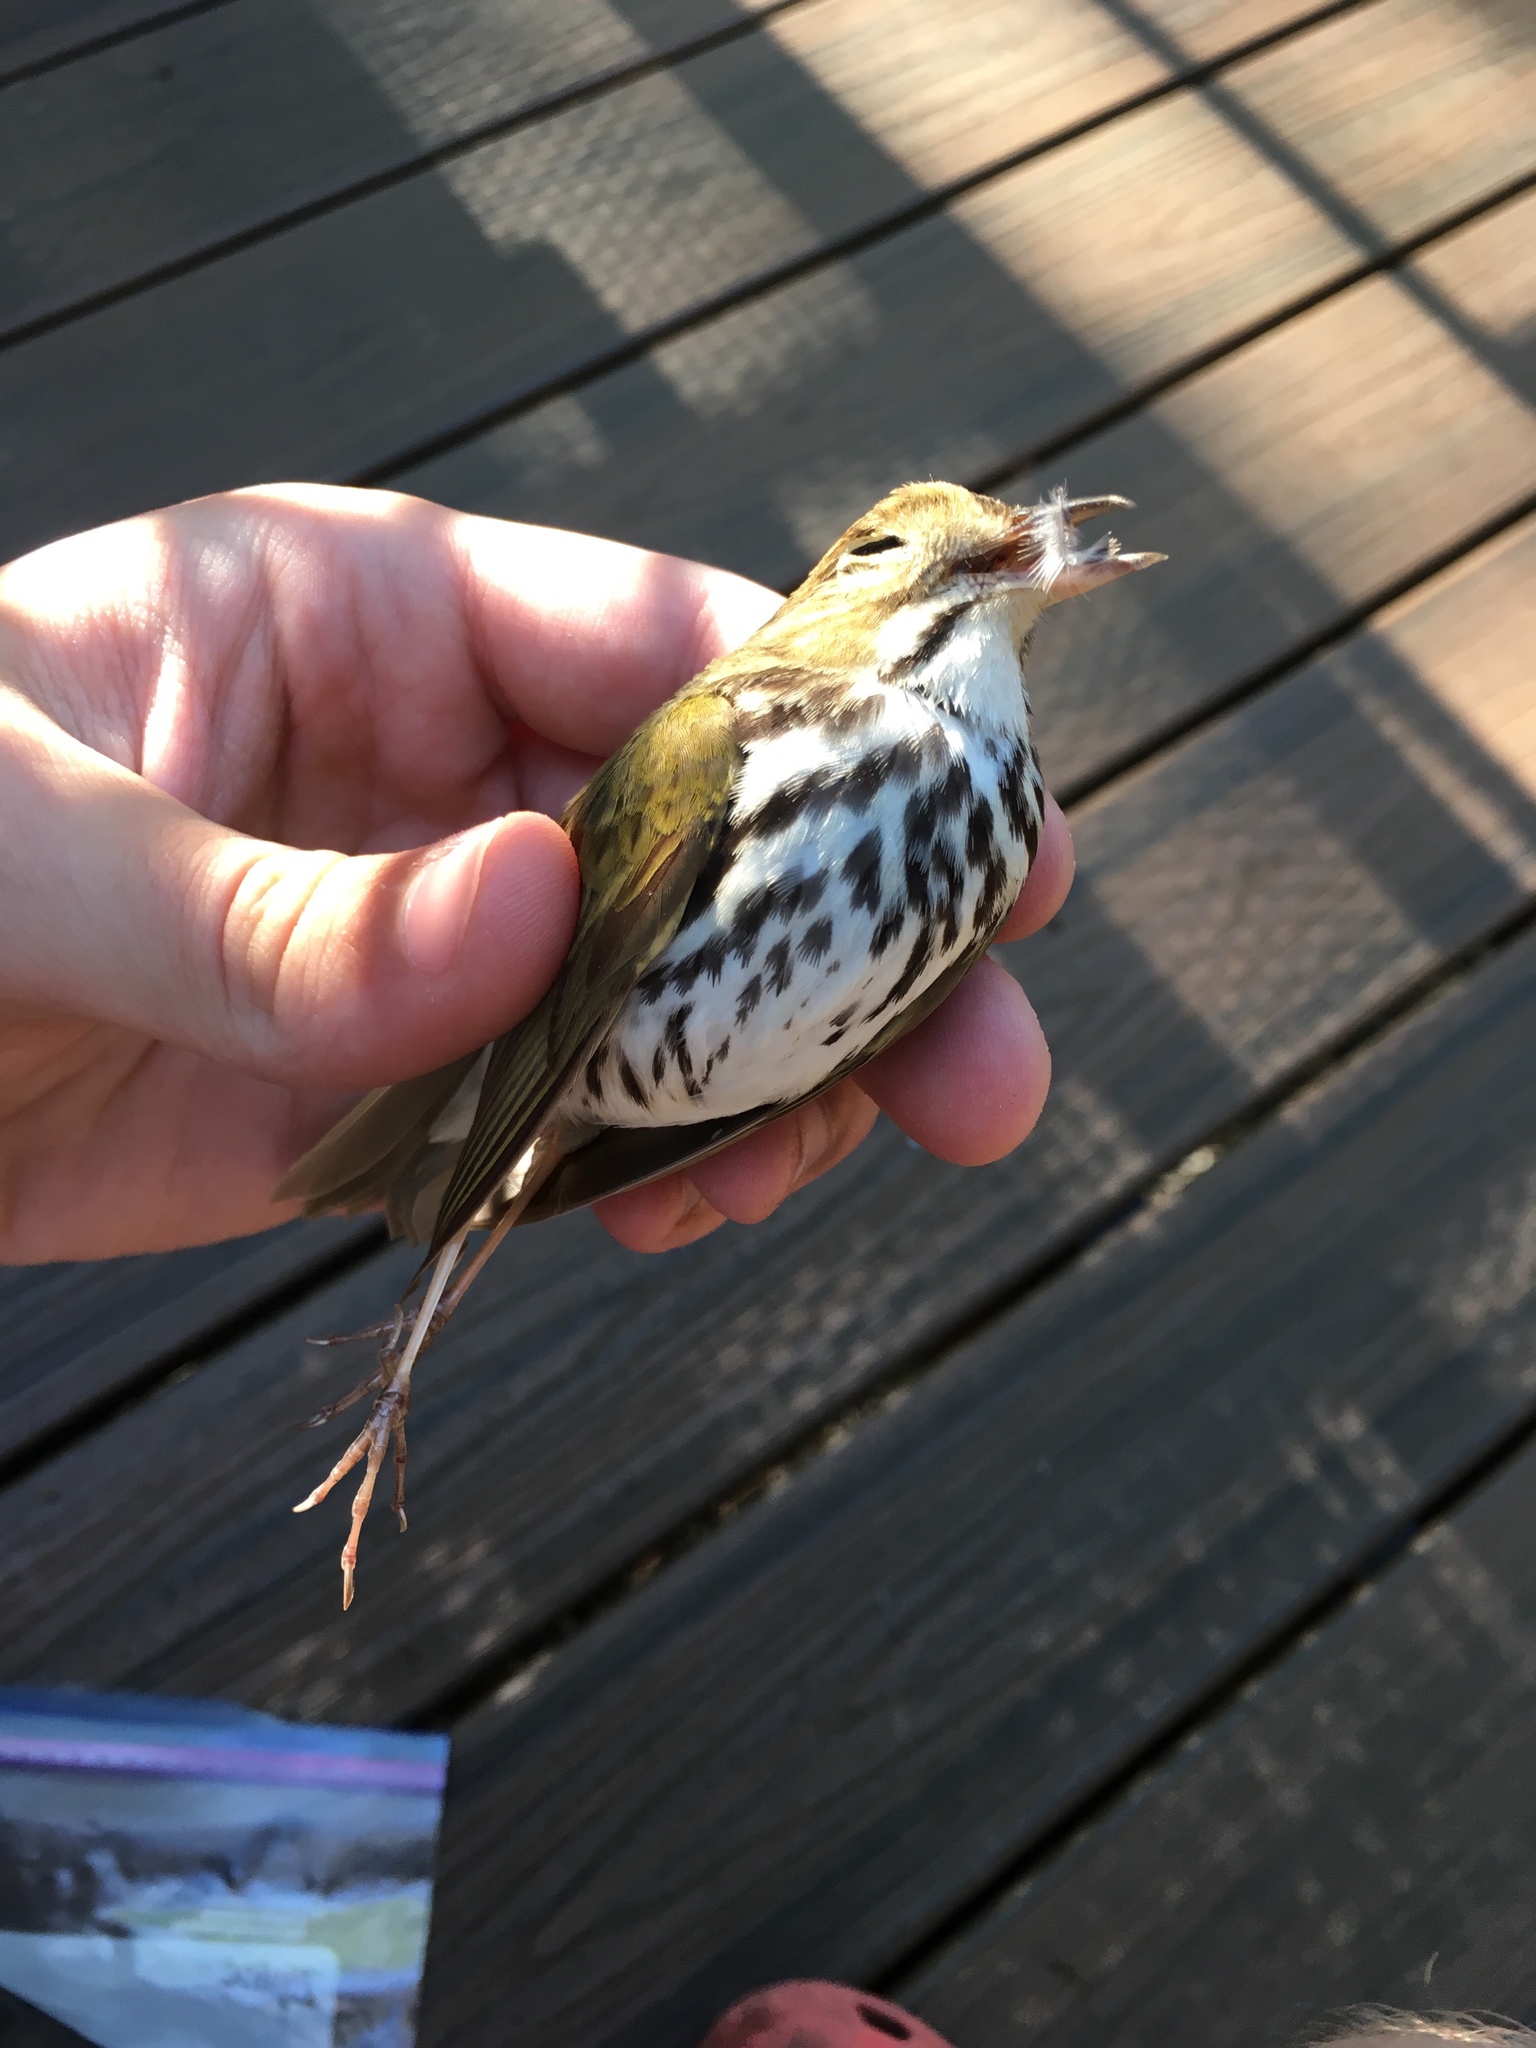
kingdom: Animalia
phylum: Chordata
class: Aves
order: Passeriformes
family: Parulidae
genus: Seiurus
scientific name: Seiurus aurocapilla
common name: Ovenbird
